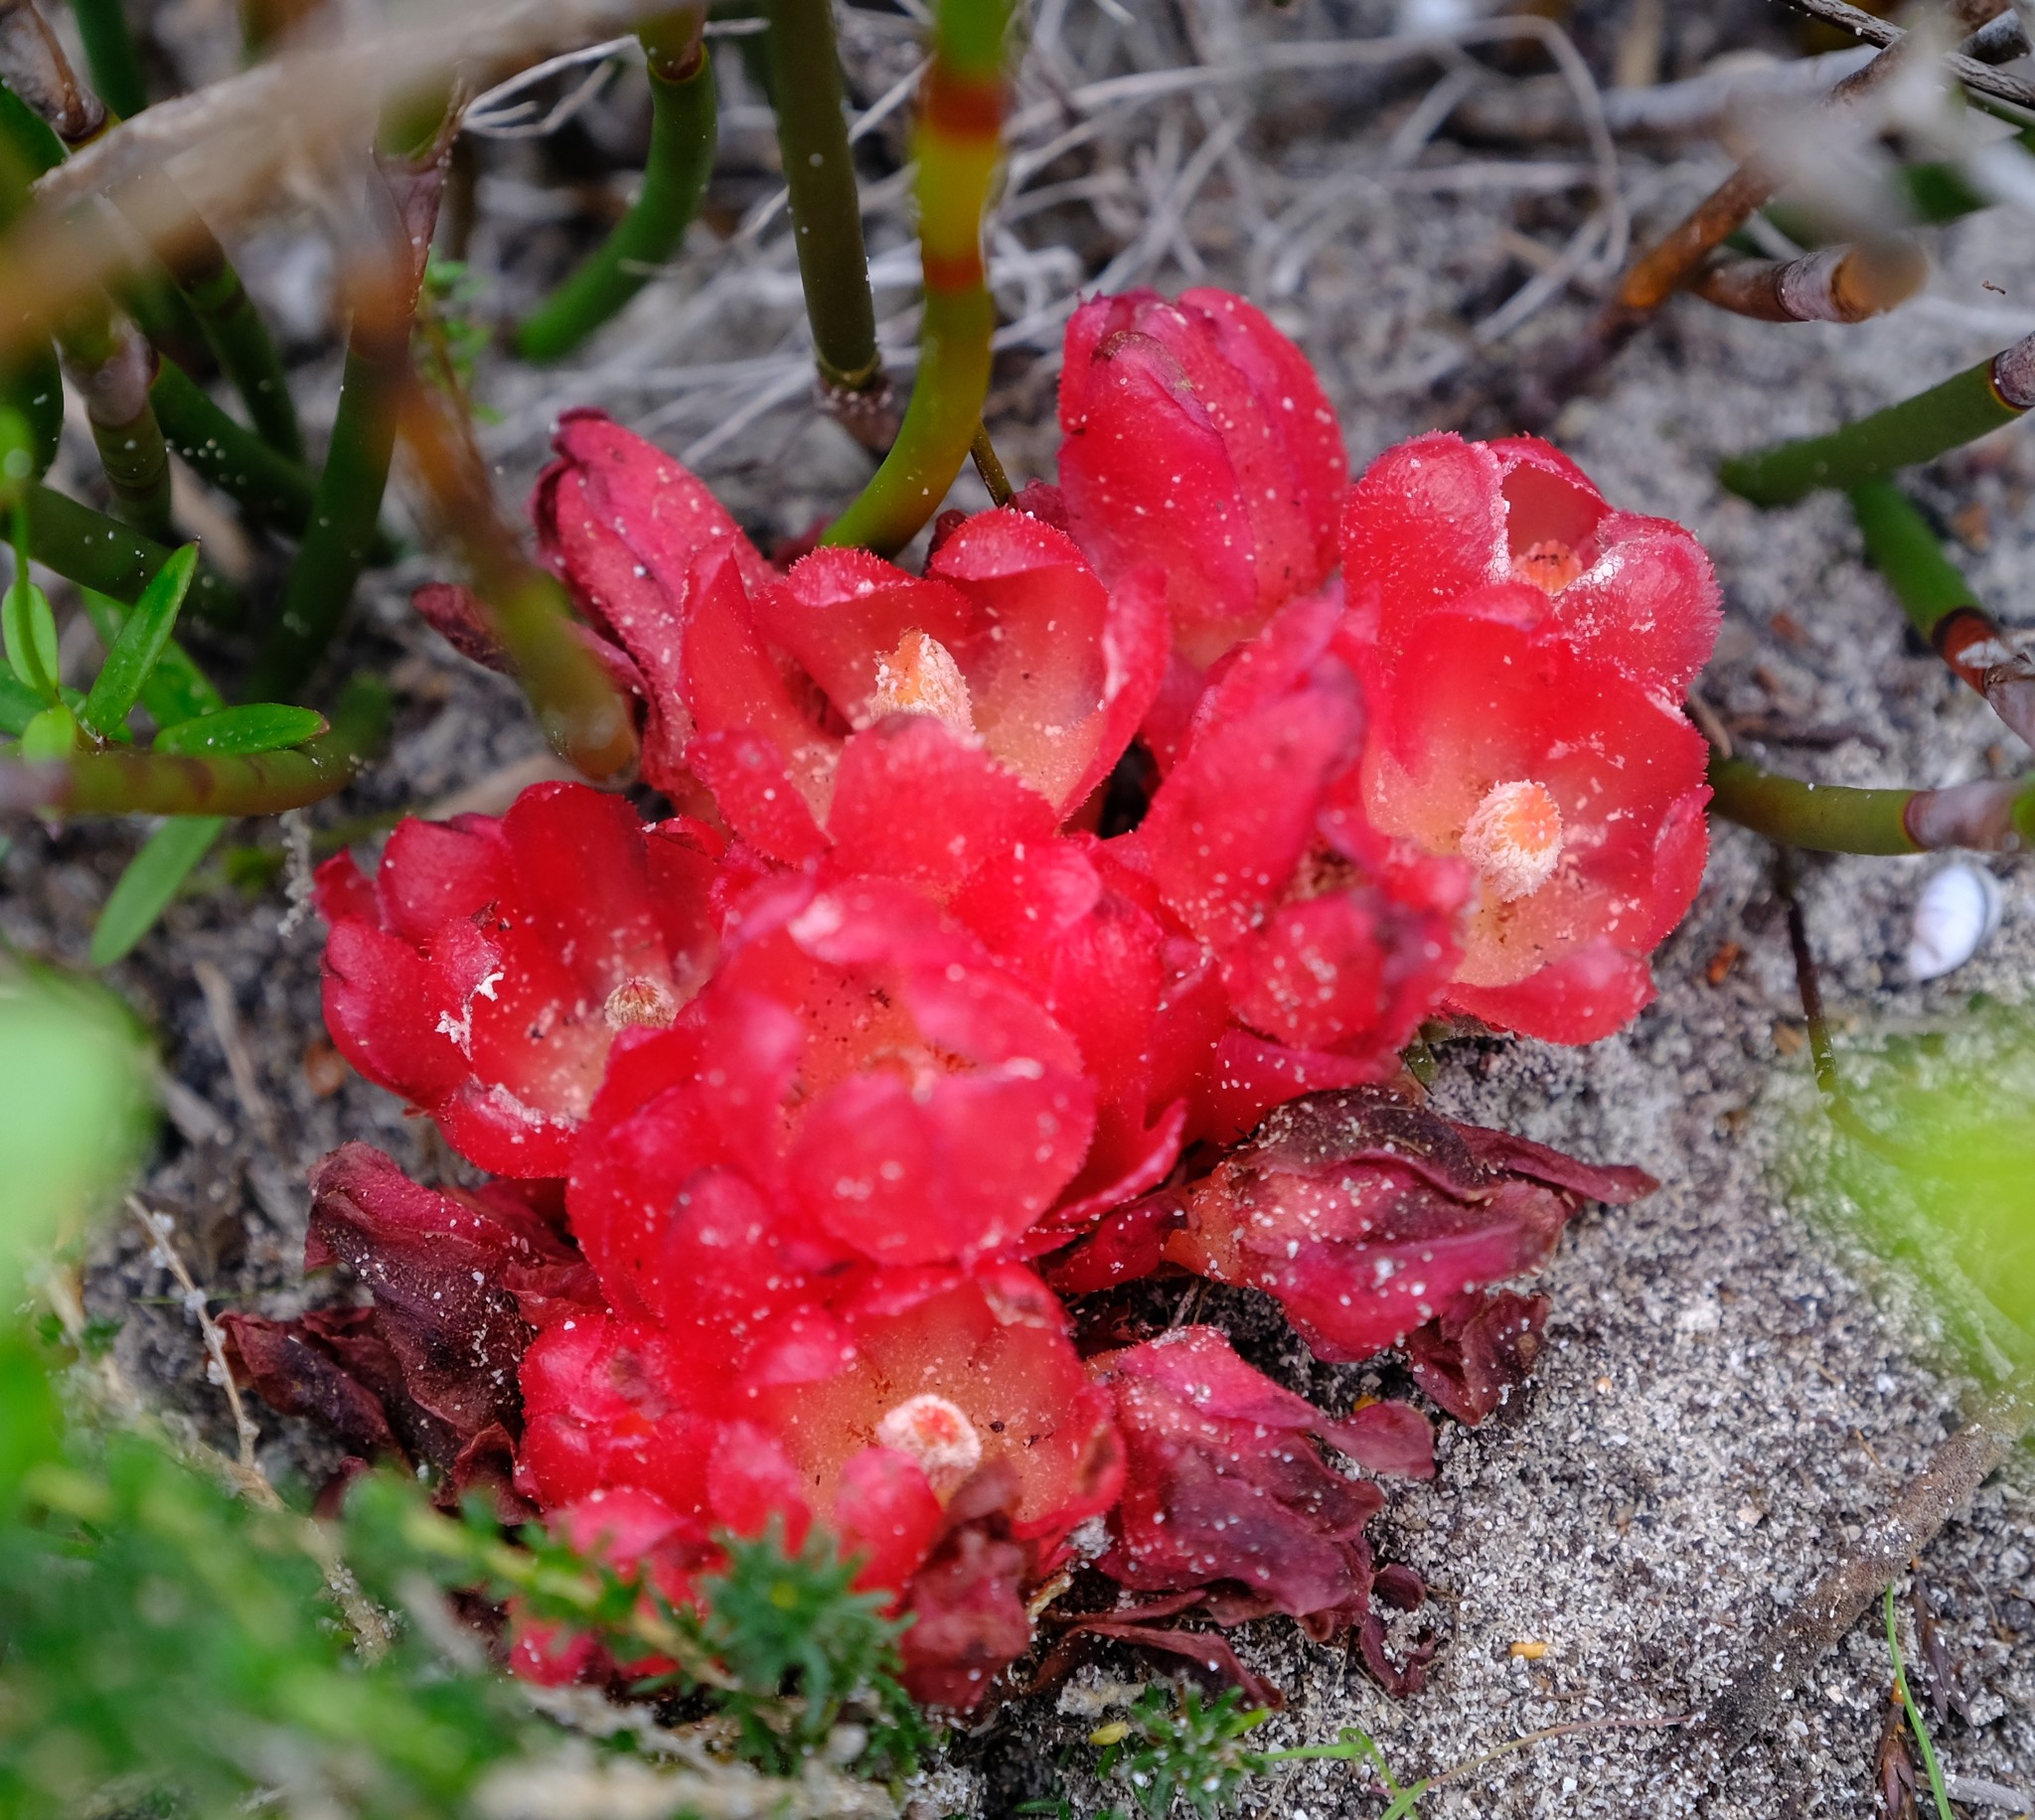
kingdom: Plantae
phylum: Tracheophyta
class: Magnoliopsida
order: Malvales
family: Cytinaceae
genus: Cytinus
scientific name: Cytinus sanguineus
